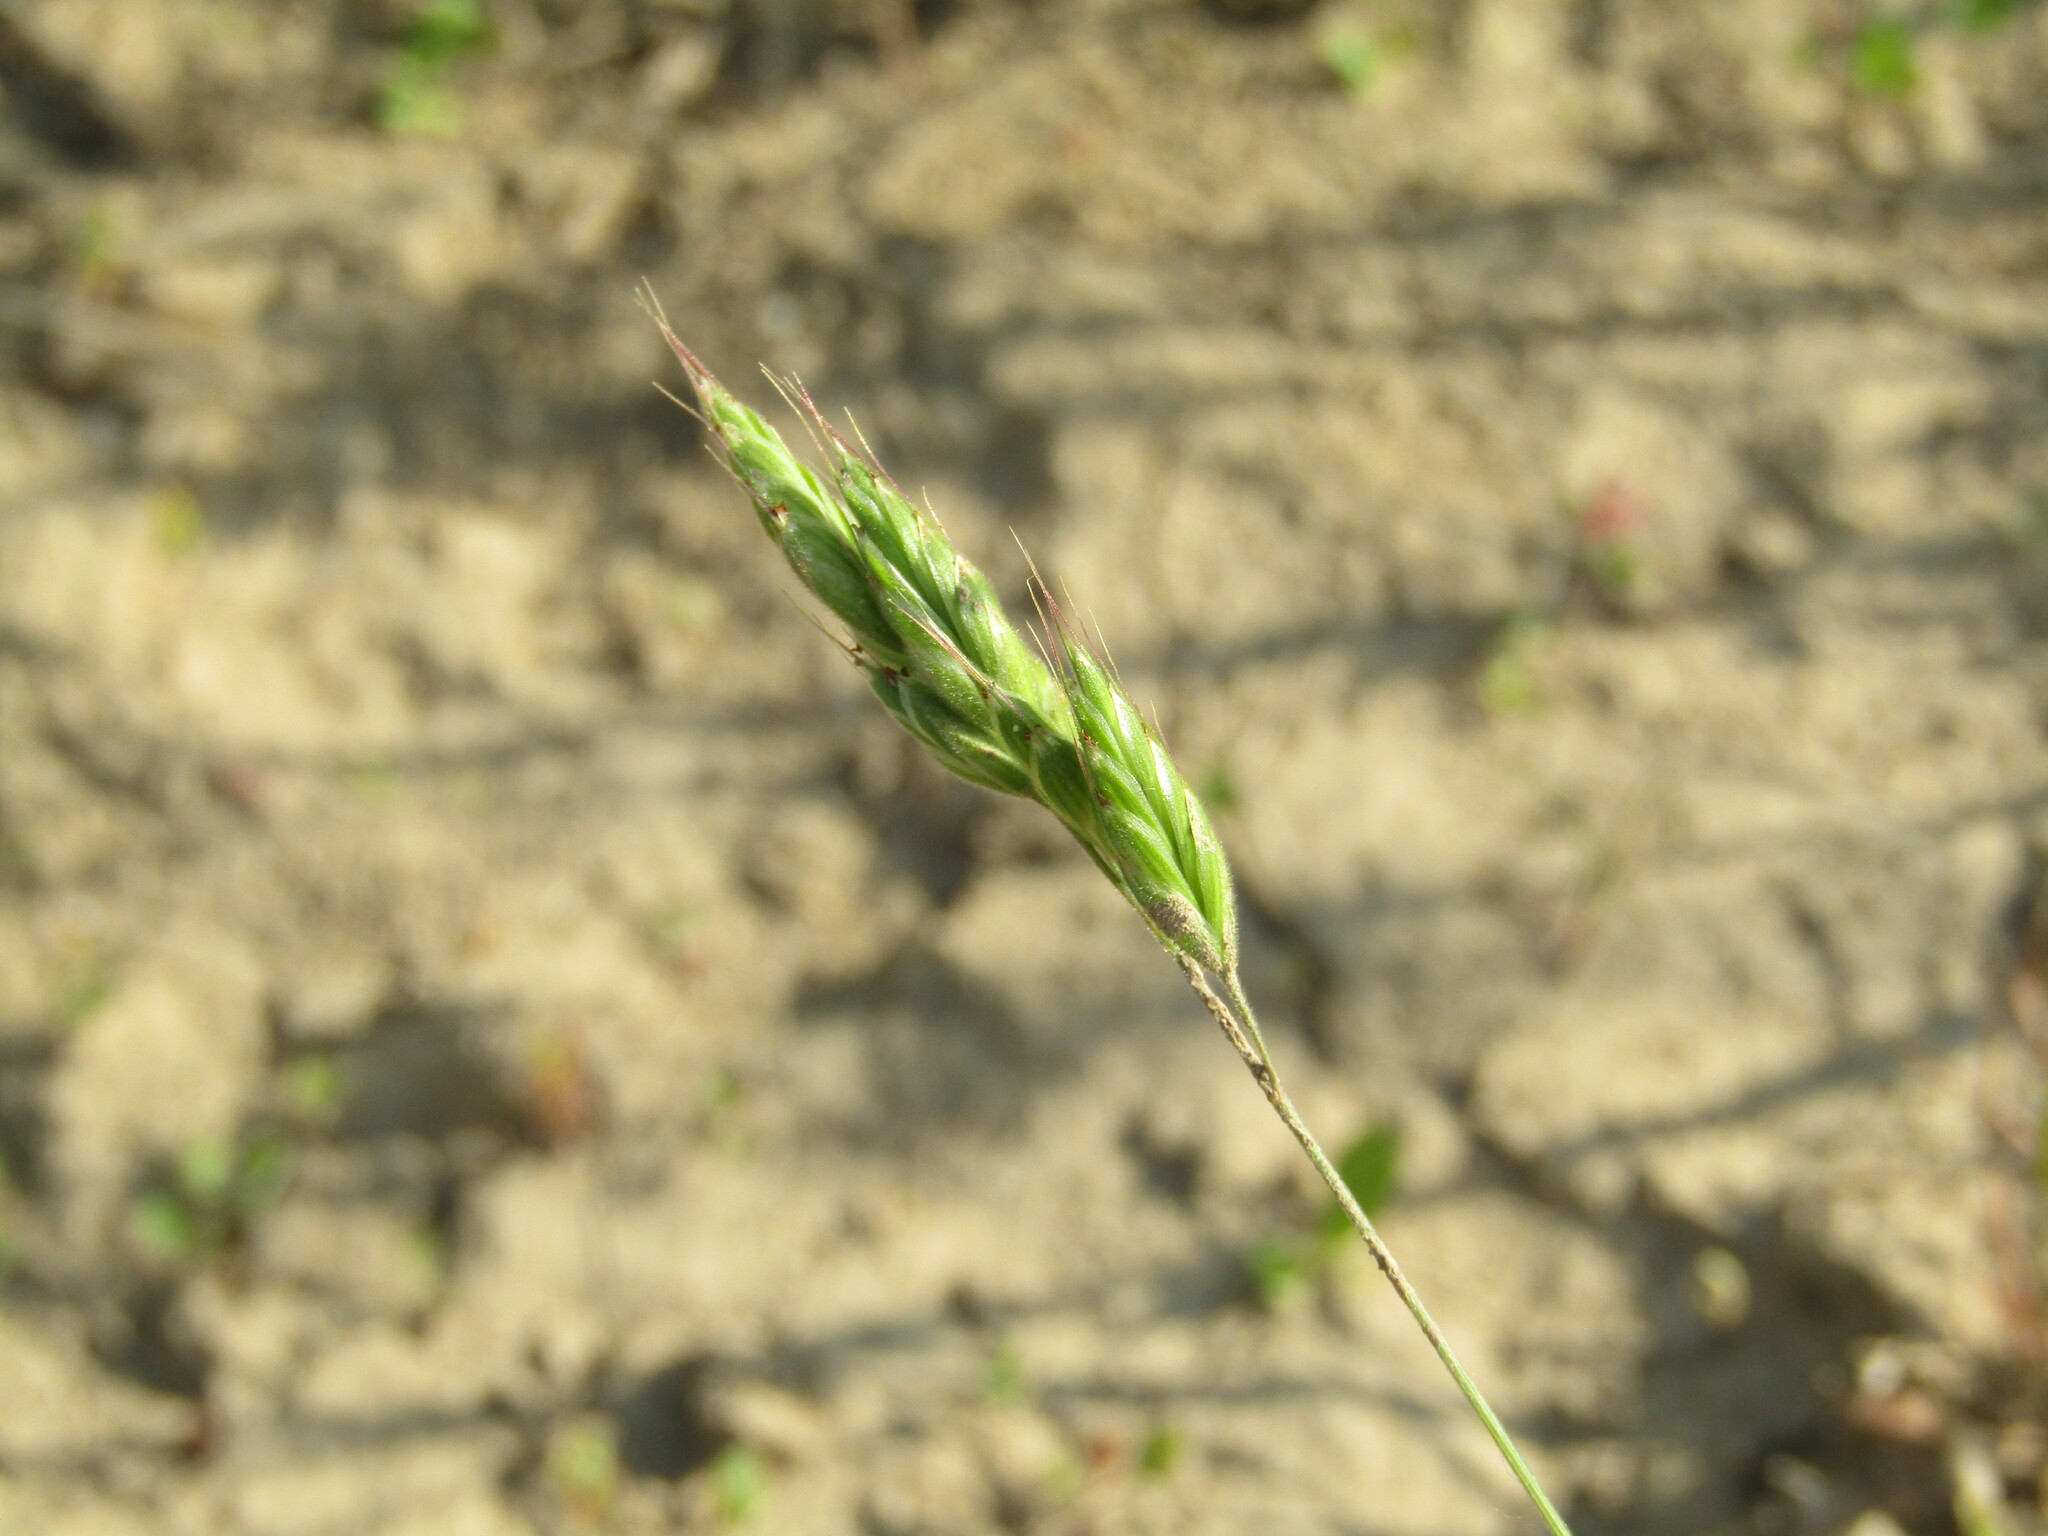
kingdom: Plantae
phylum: Tracheophyta
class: Liliopsida
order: Poales
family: Poaceae
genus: Bromus
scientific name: Bromus hordeaceus
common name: Soft brome
